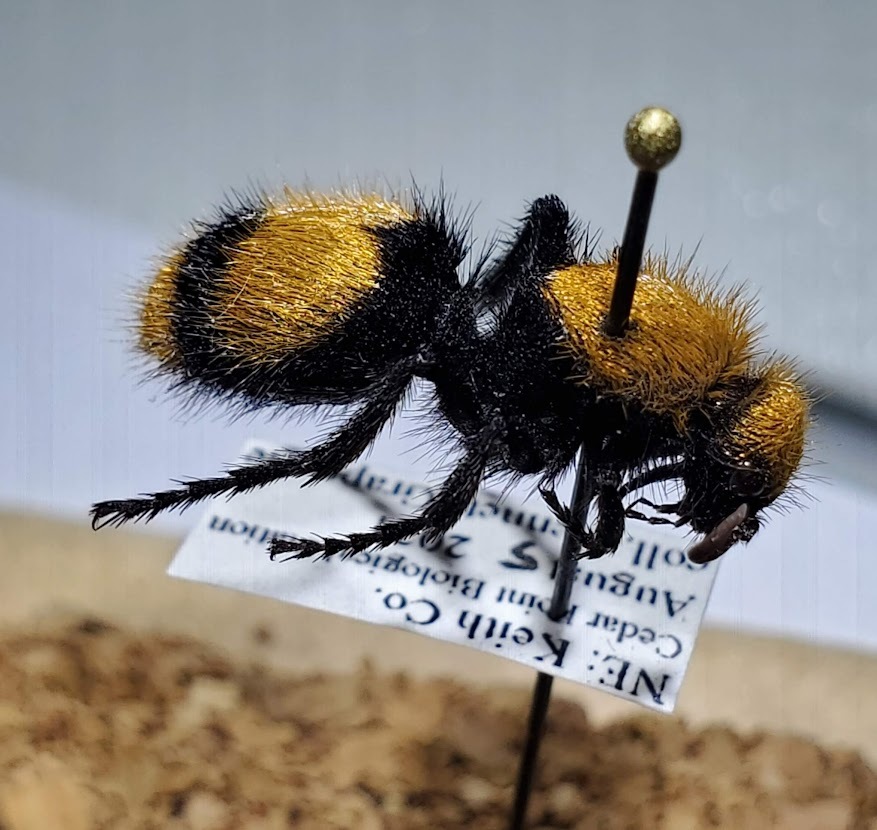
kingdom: Animalia
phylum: Arthropoda
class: Insecta
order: Hymenoptera
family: Mutillidae
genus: Dasymutilla
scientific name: Dasymutilla occidentalis
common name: Common eastern velvet ant
